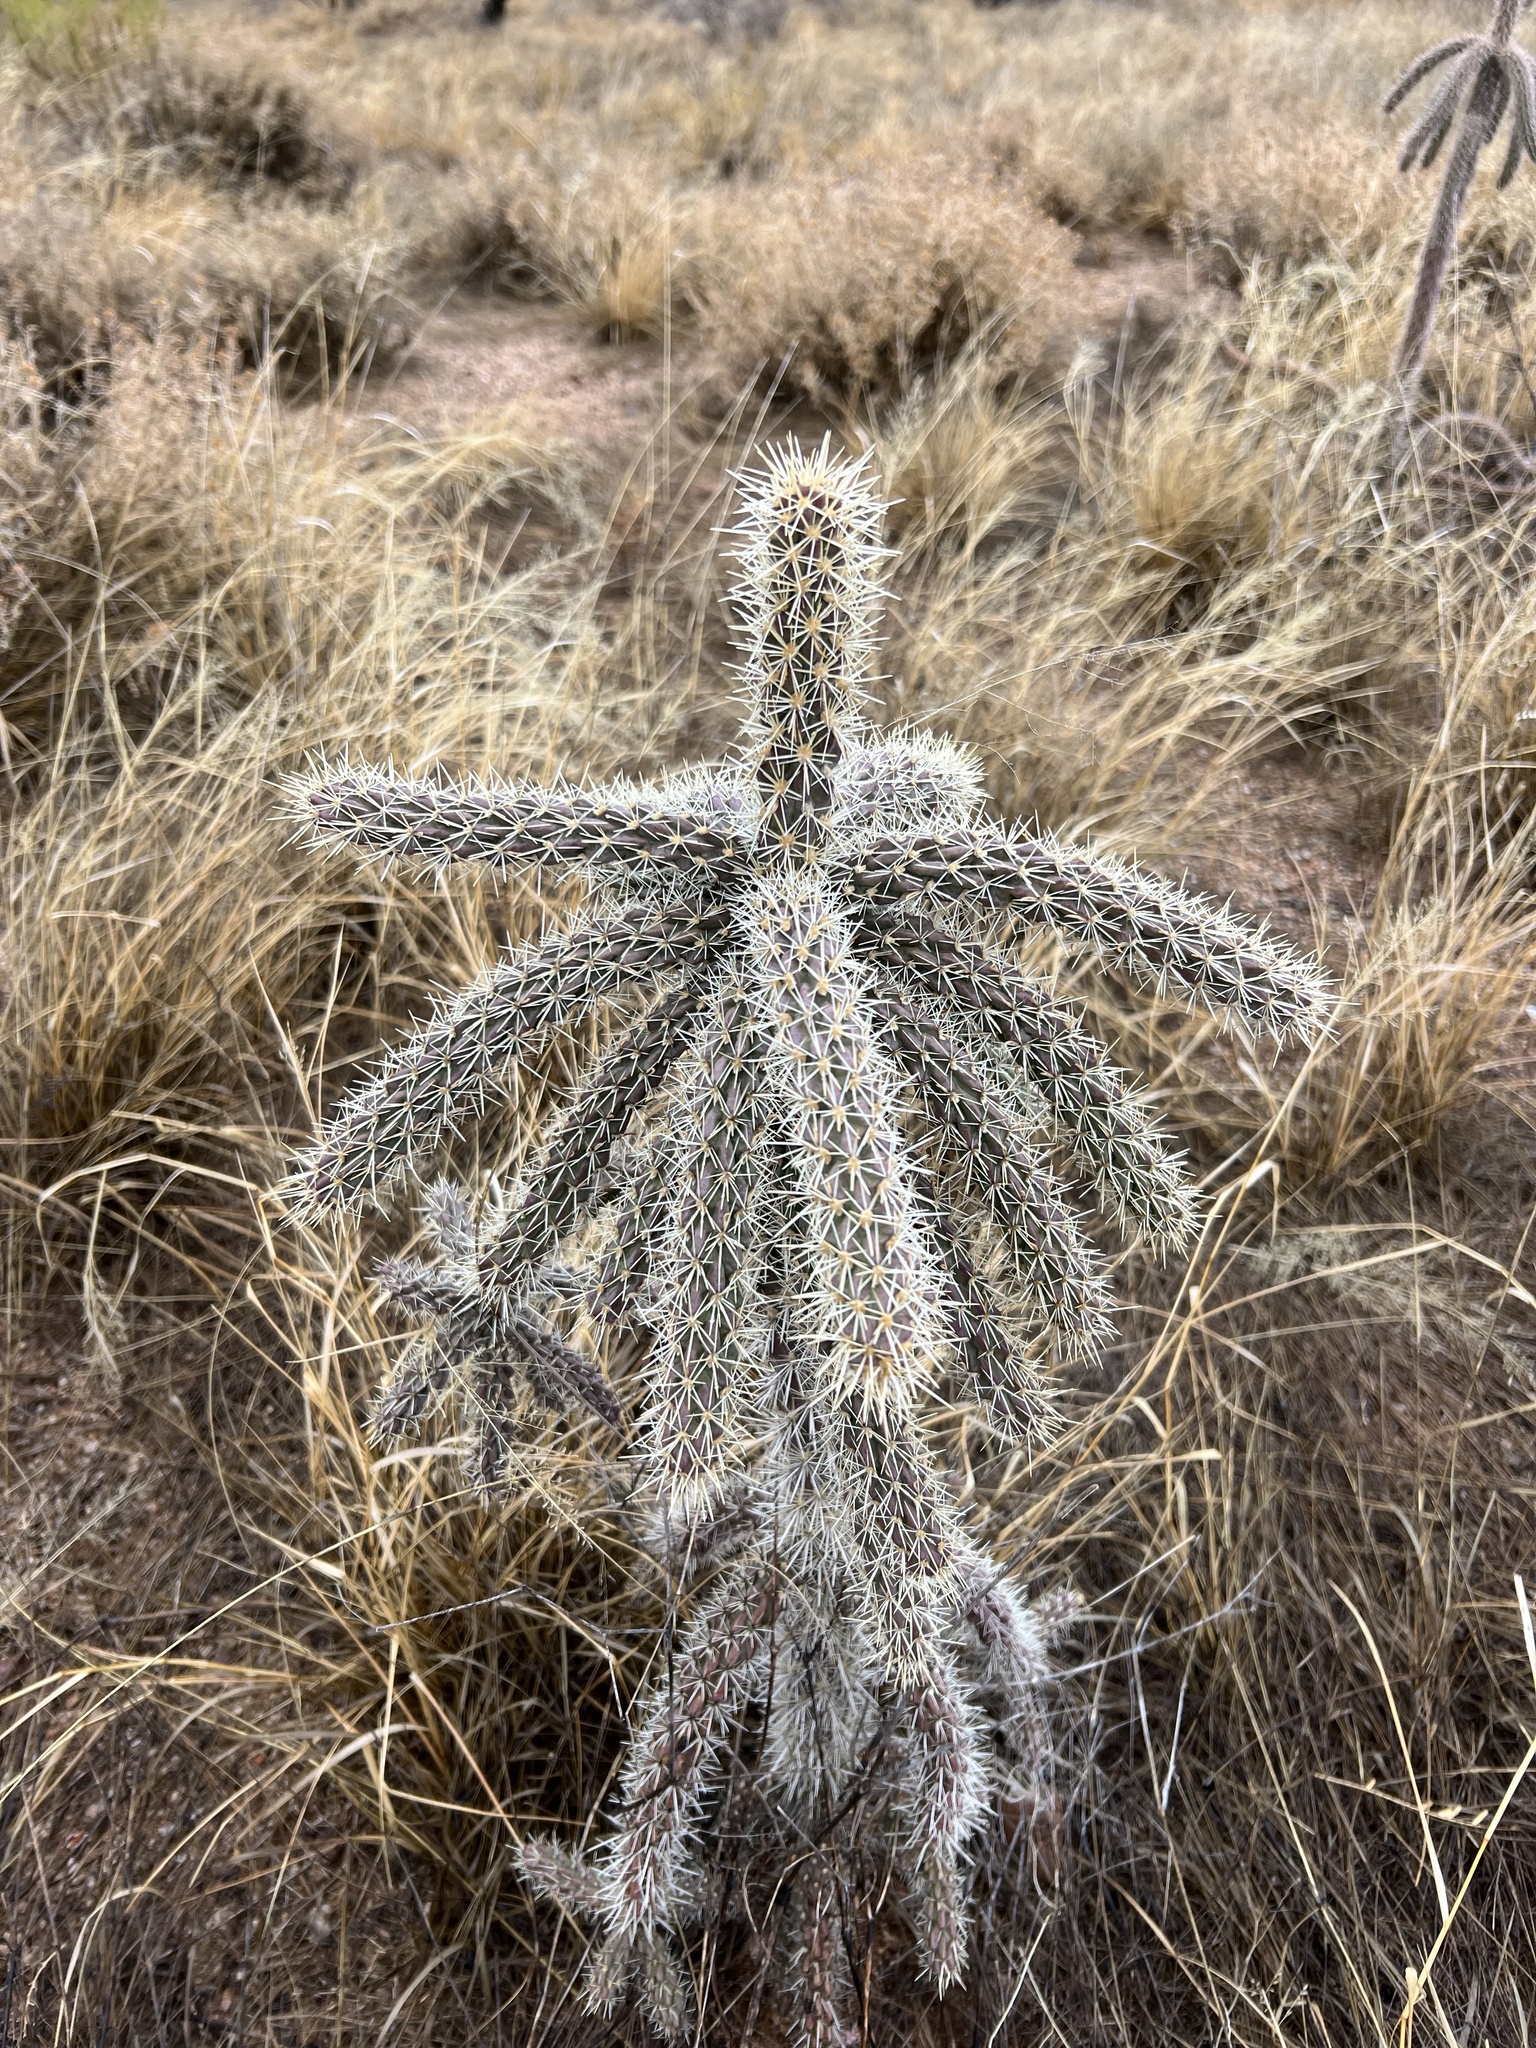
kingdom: Plantae
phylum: Tracheophyta
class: Magnoliopsida
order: Caryophyllales
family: Cactaceae
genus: Cylindropuntia
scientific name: Cylindropuntia imbricata
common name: Candelabrum cactus
